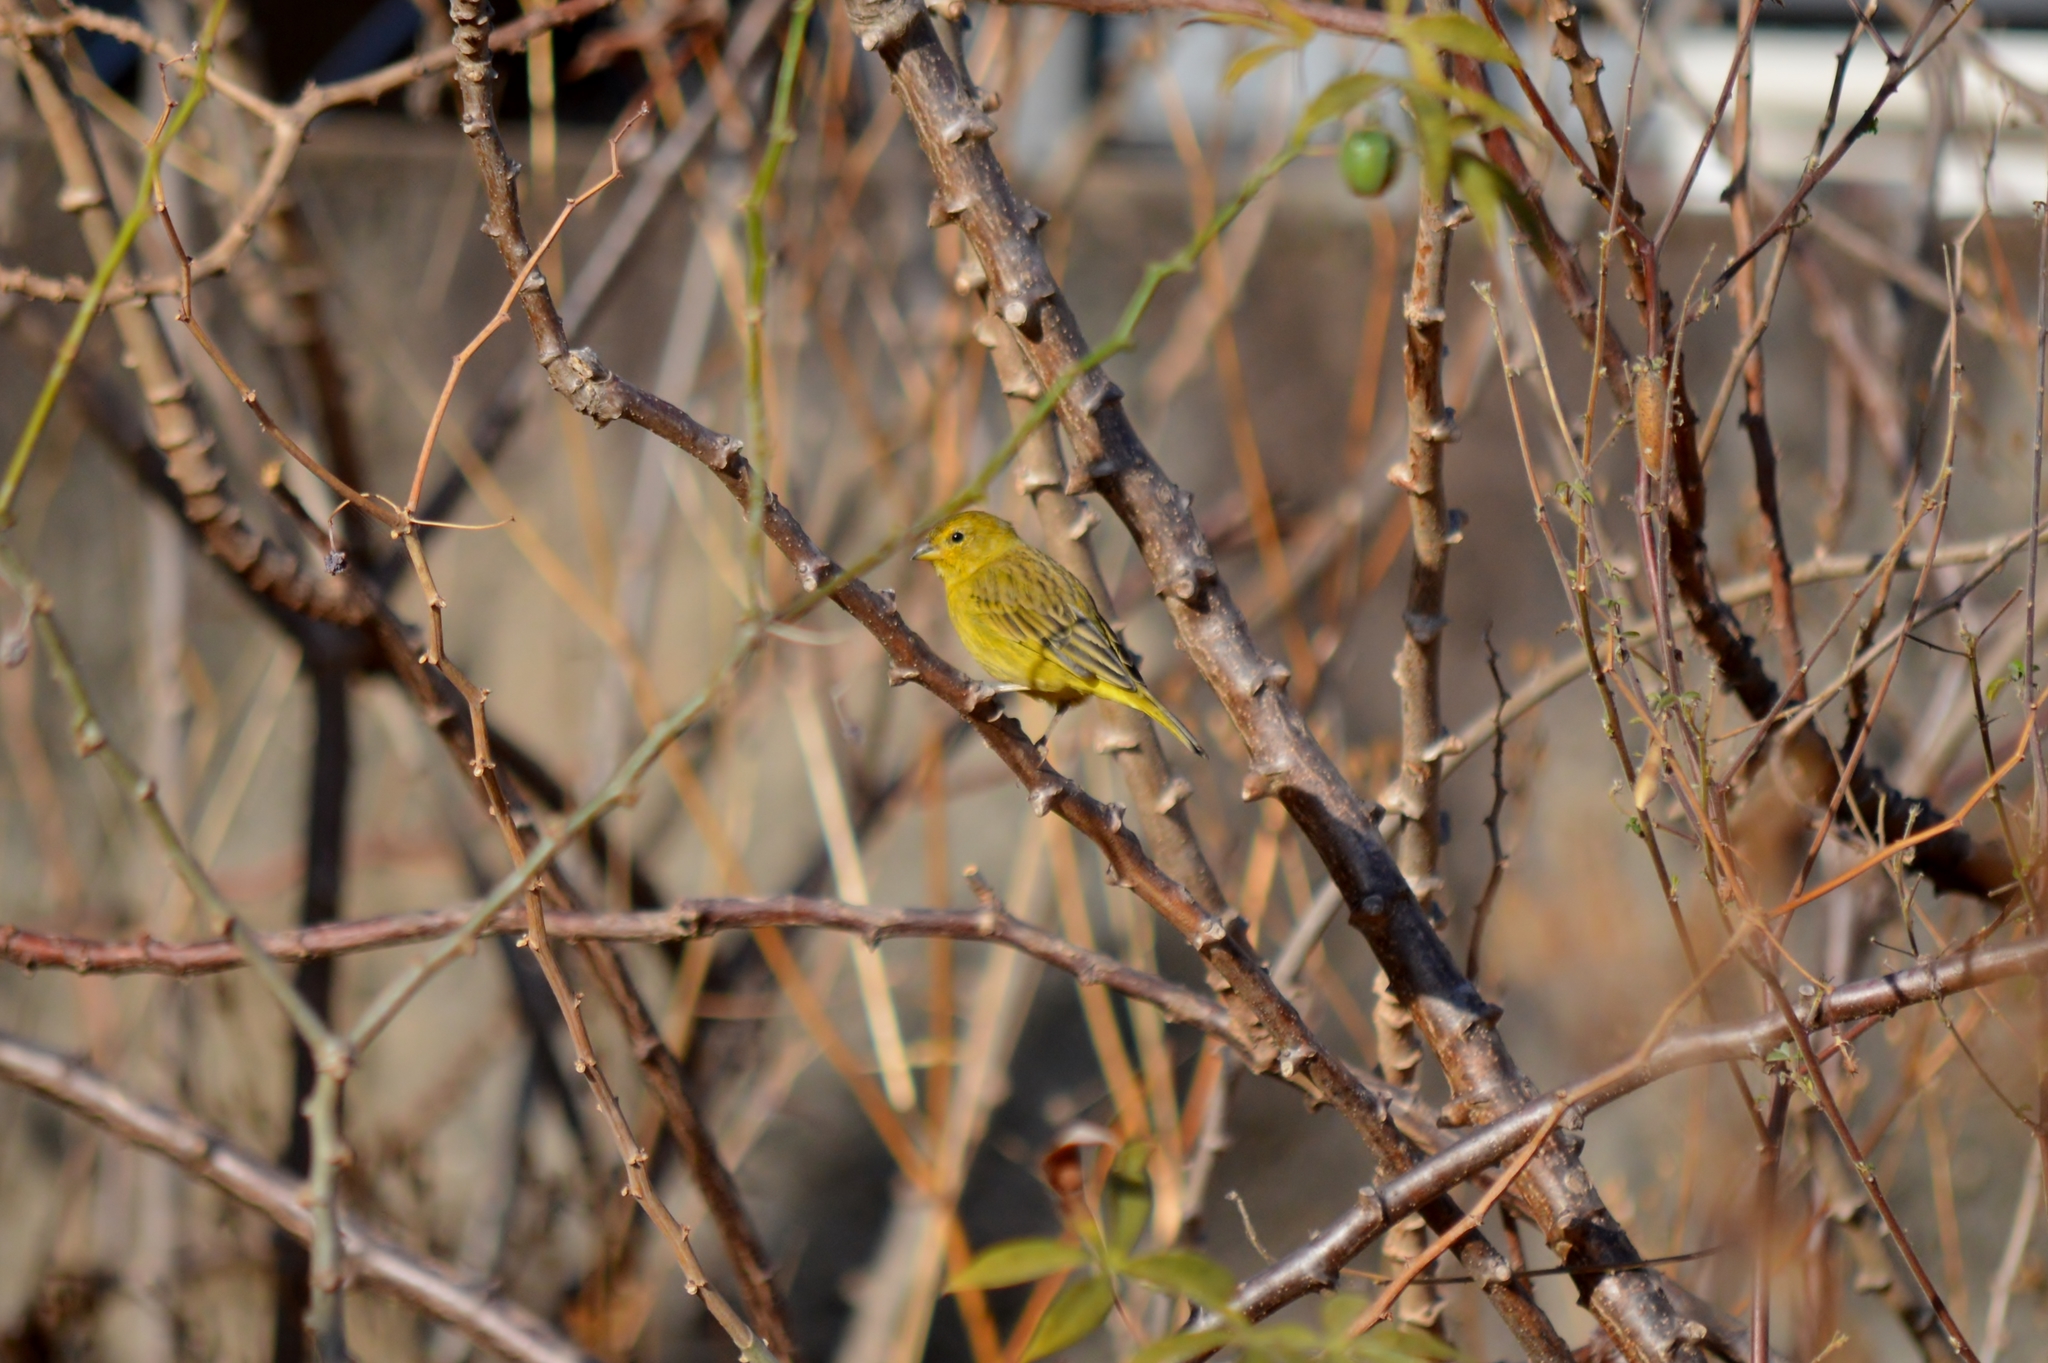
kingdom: Animalia
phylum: Chordata
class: Aves
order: Passeriformes
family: Thraupidae
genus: Sicalis
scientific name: Sicalis flaveola
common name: Saffron finch
